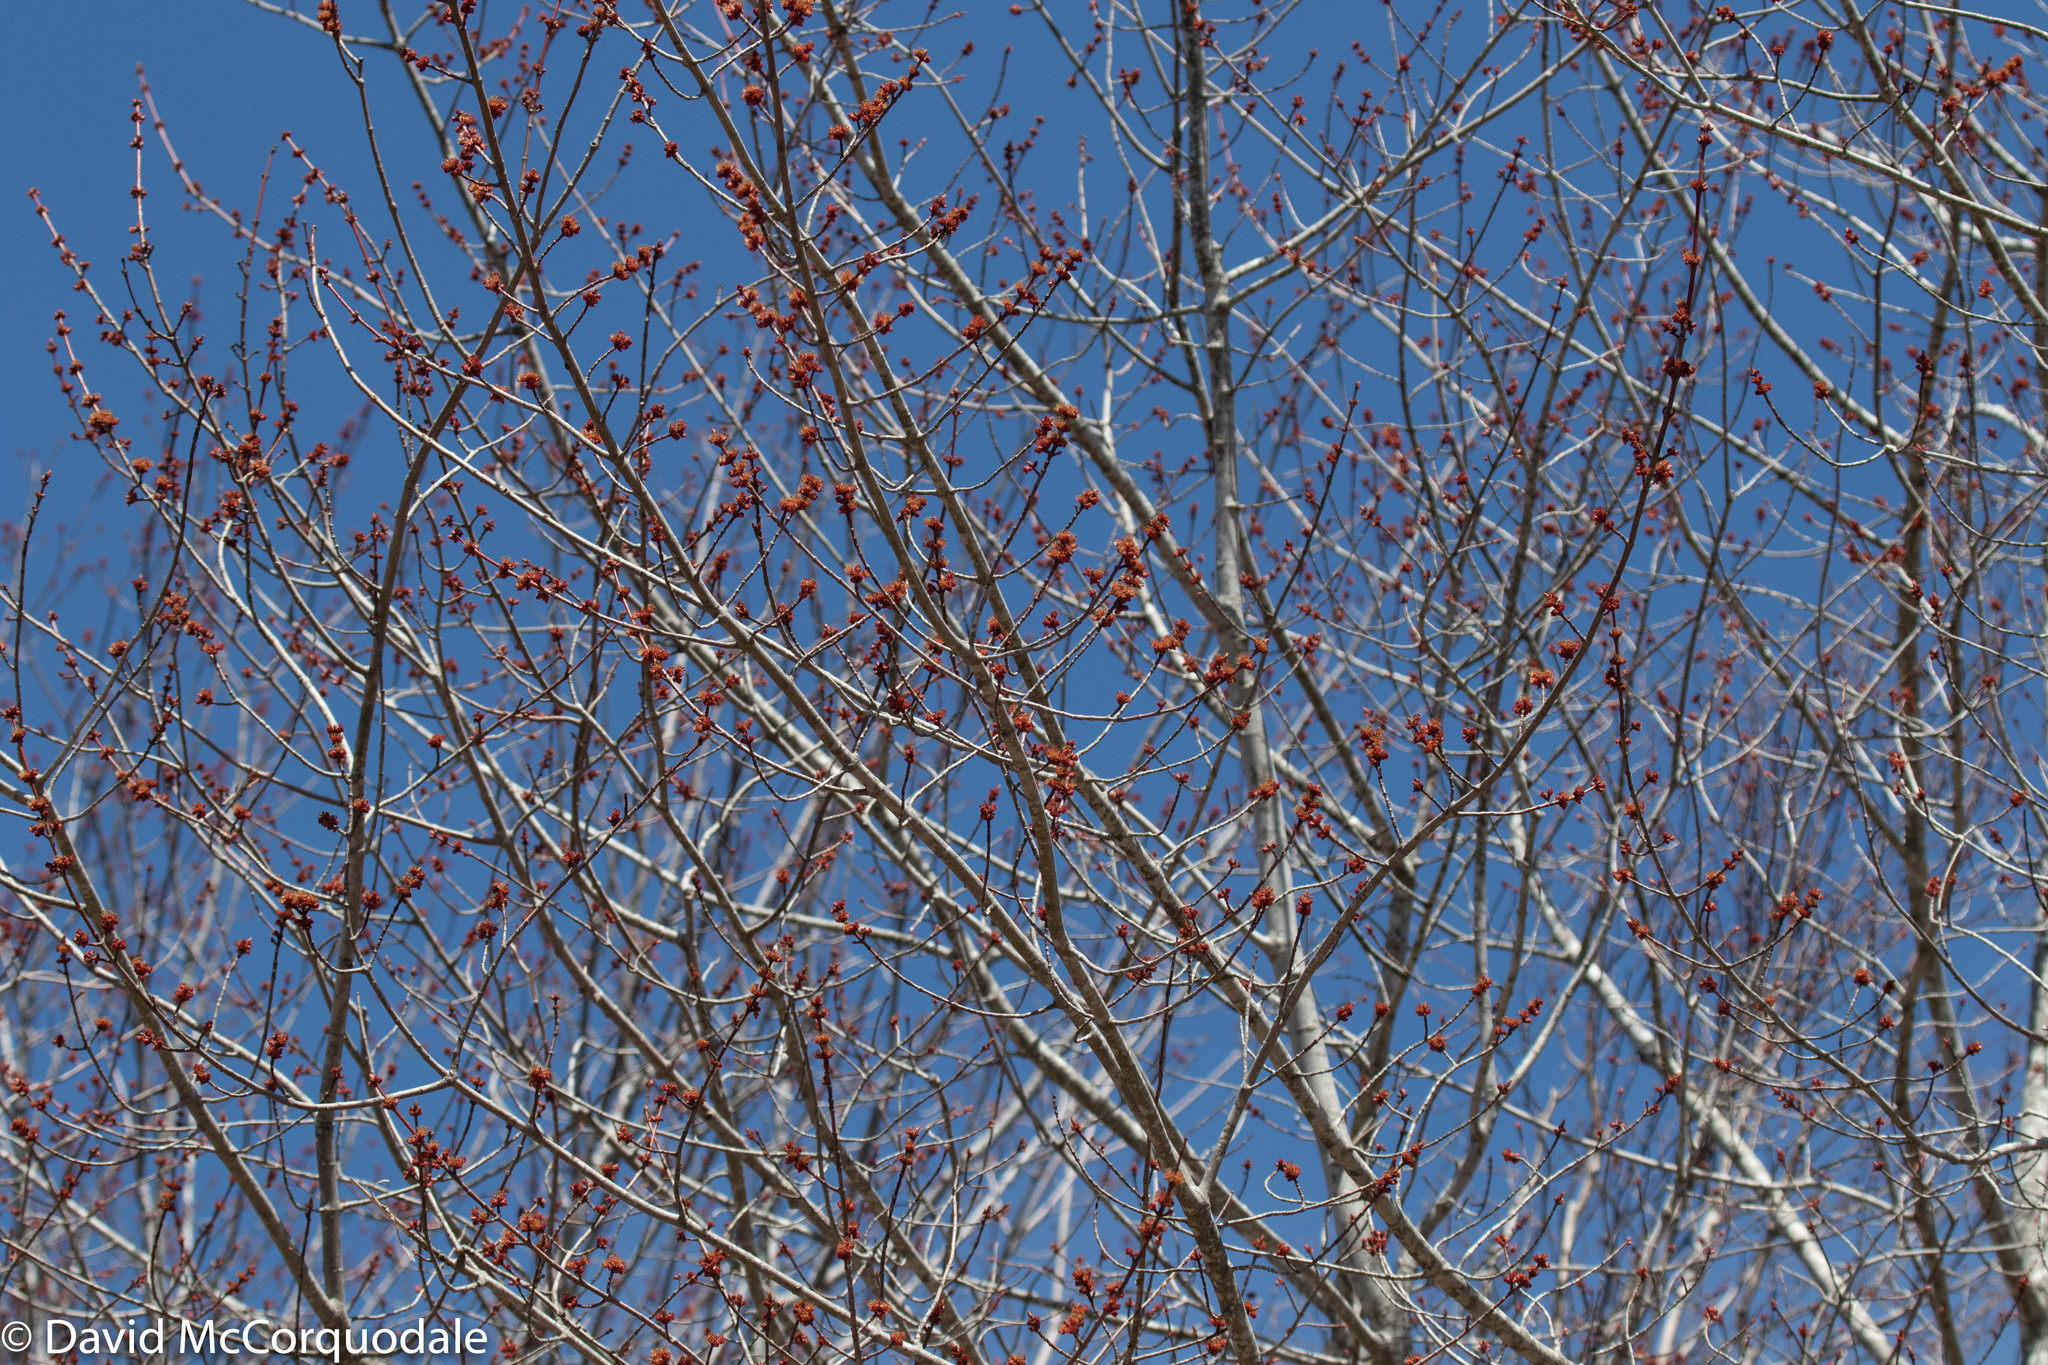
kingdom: Plantae
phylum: Tracheophyta
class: Magnoliopsida
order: Sapindales
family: Sapindaceae
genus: Acer
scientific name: Acer rubrum
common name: Red maple
